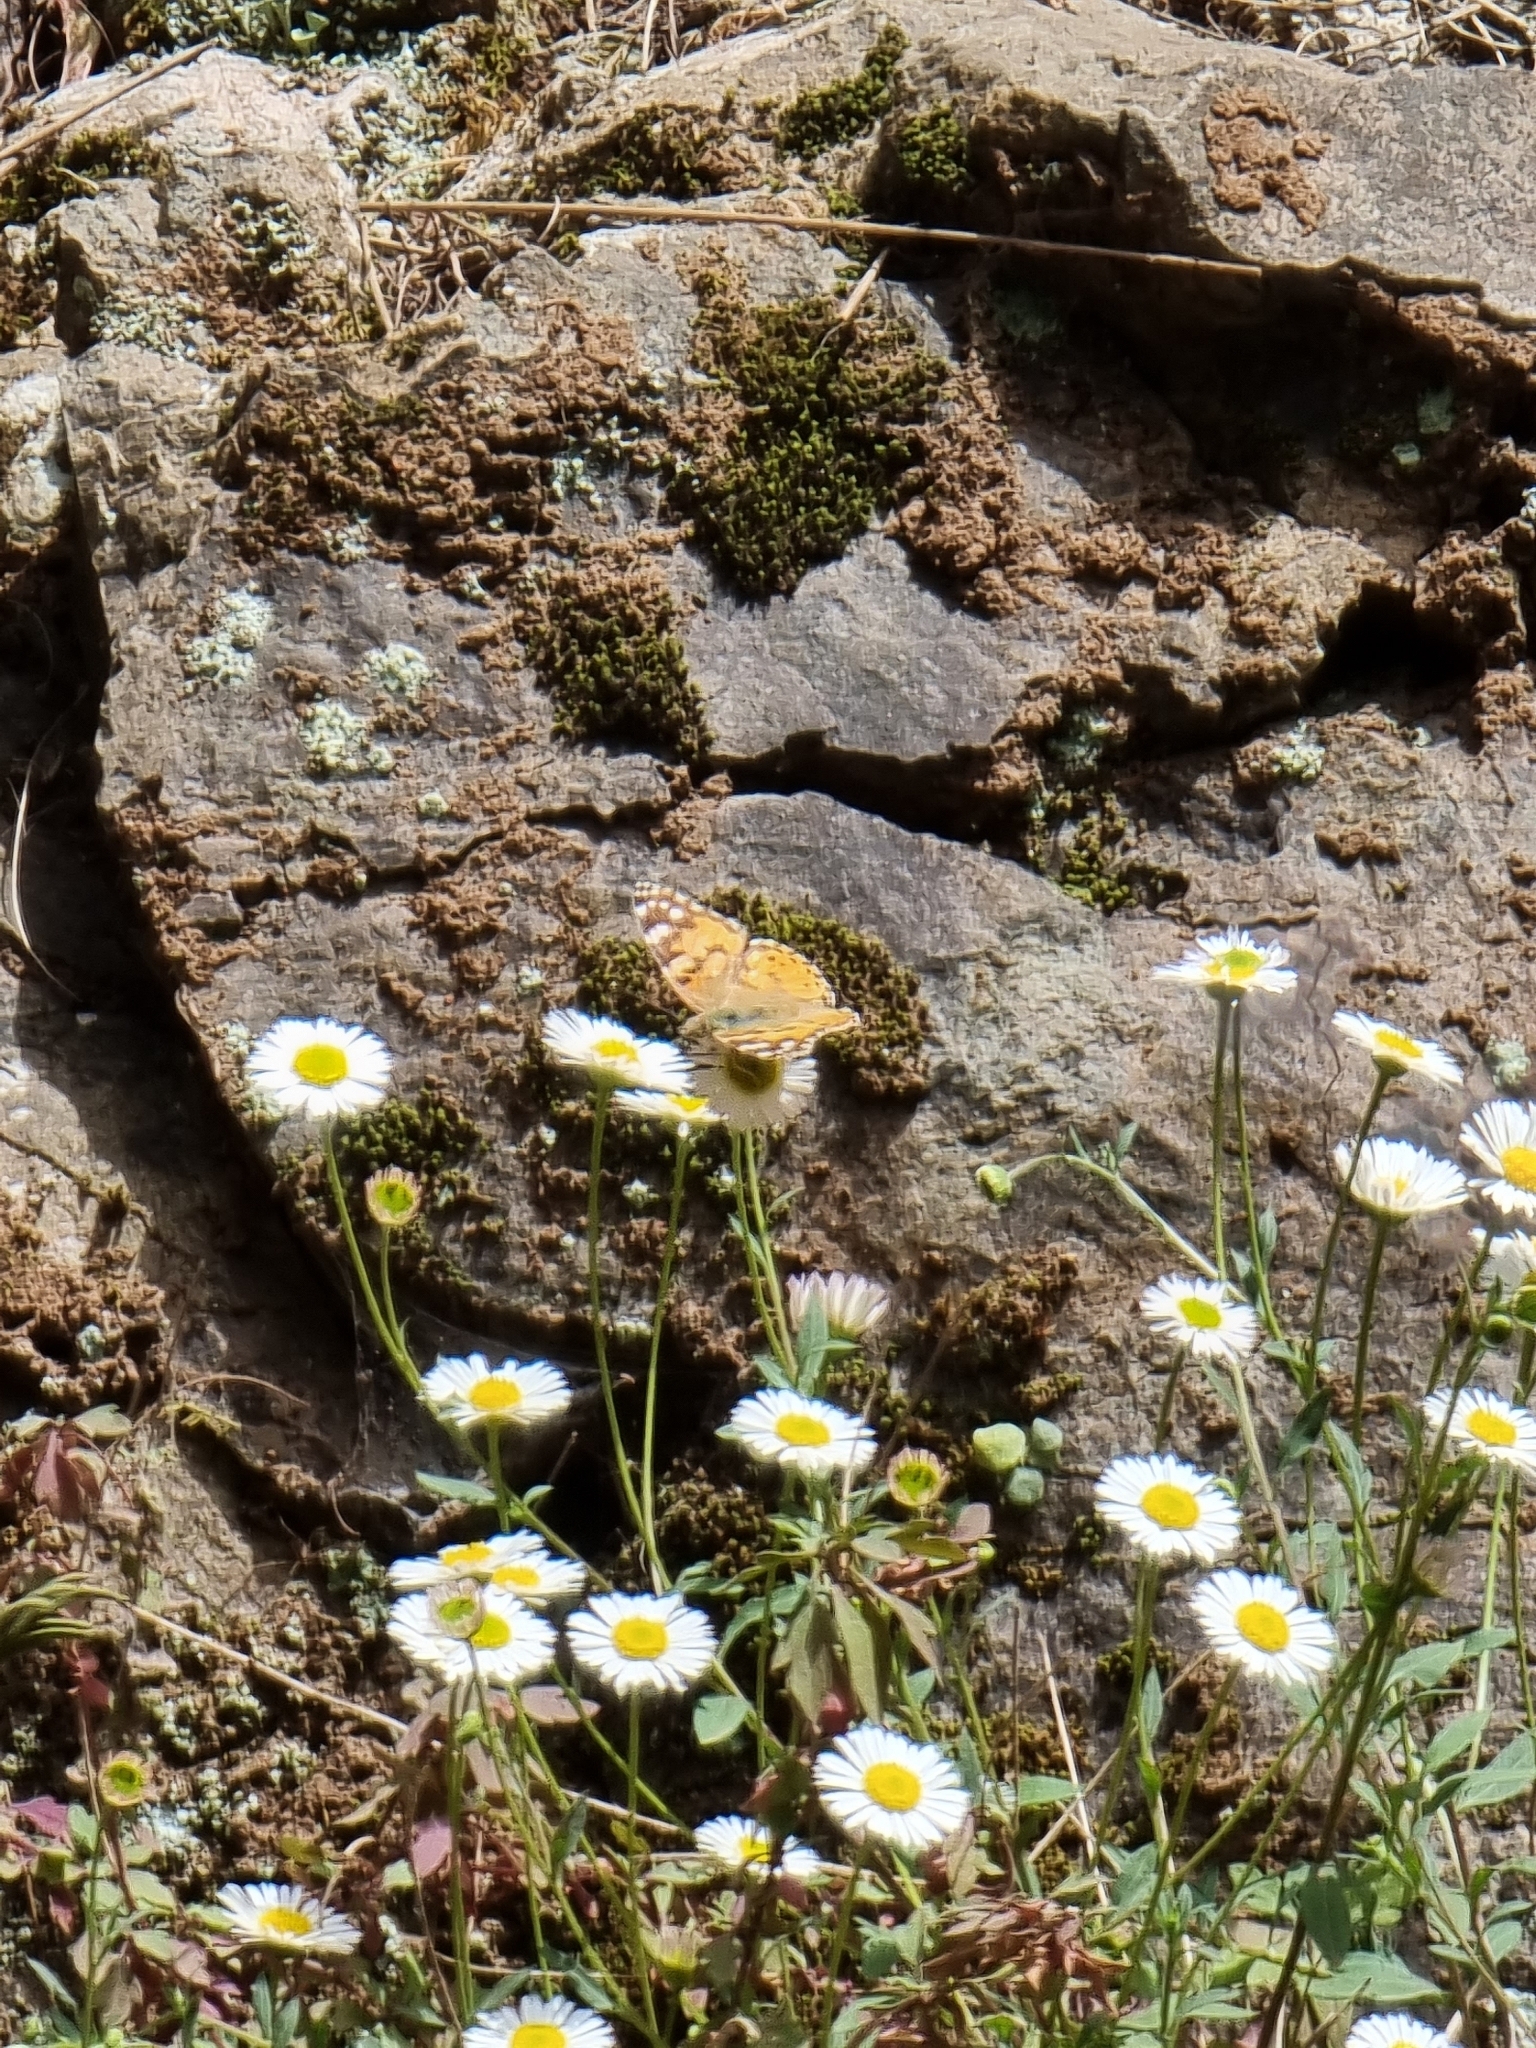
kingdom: Animalia
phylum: Arthropoda
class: Insecta
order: Lepidoptera
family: Nymphalidae
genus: Vanessa
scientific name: Vanessa cardui
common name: Painted lady
